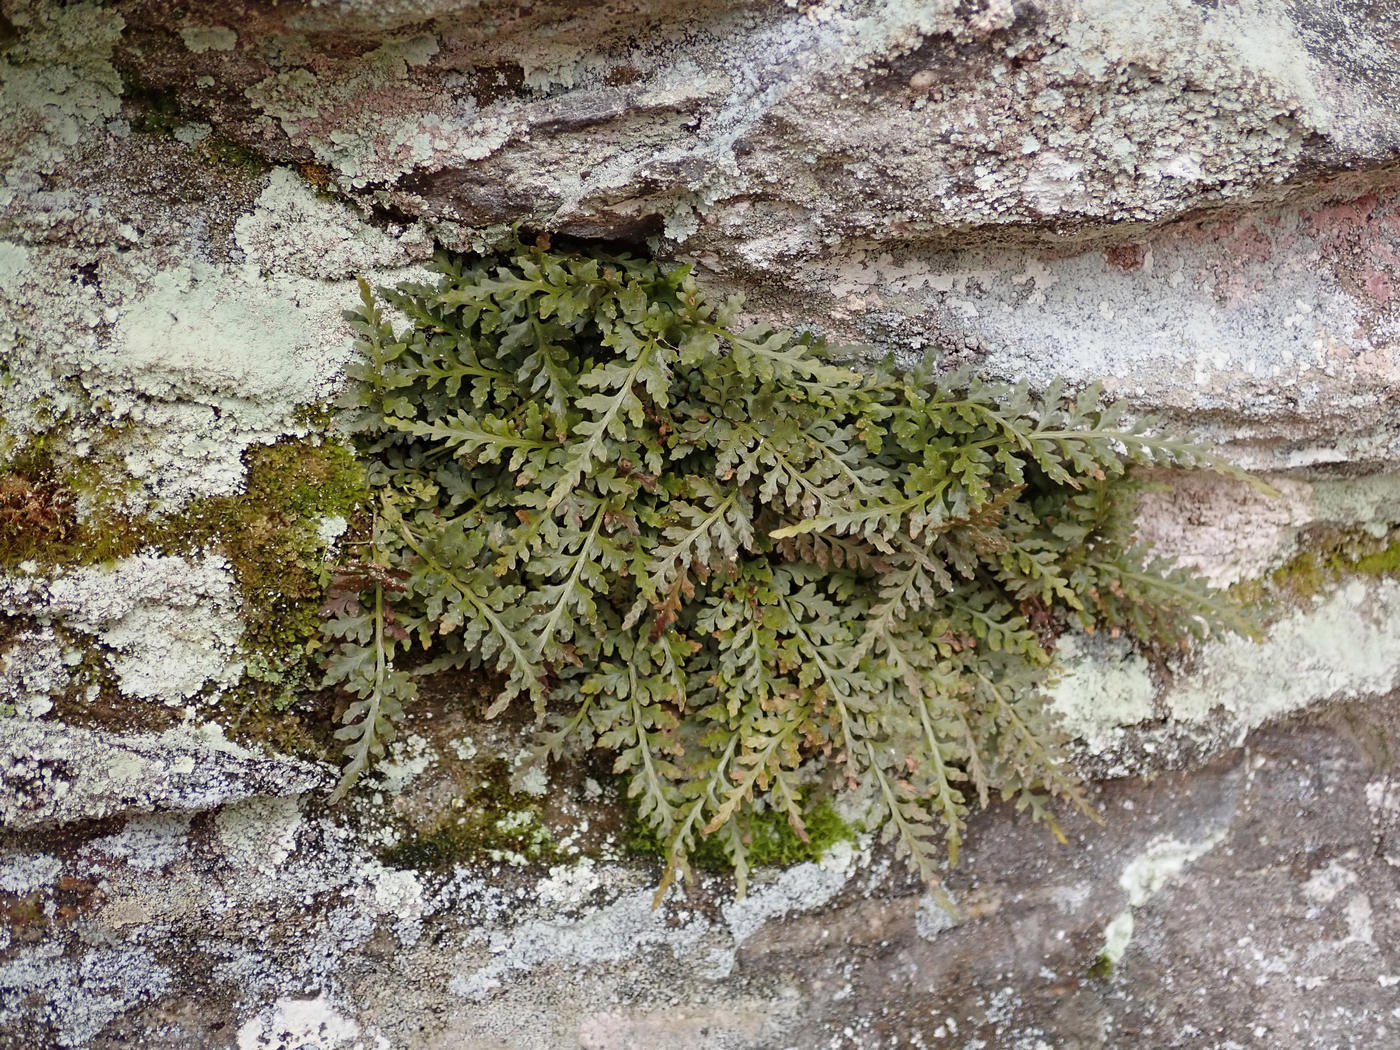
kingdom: Plantae
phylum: Tracheophyta
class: Polypodiopsida
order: Polypodiales
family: Aspleniaceae
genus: Asplenium
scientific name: Asplenium montanum
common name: Mountain spleenwort
